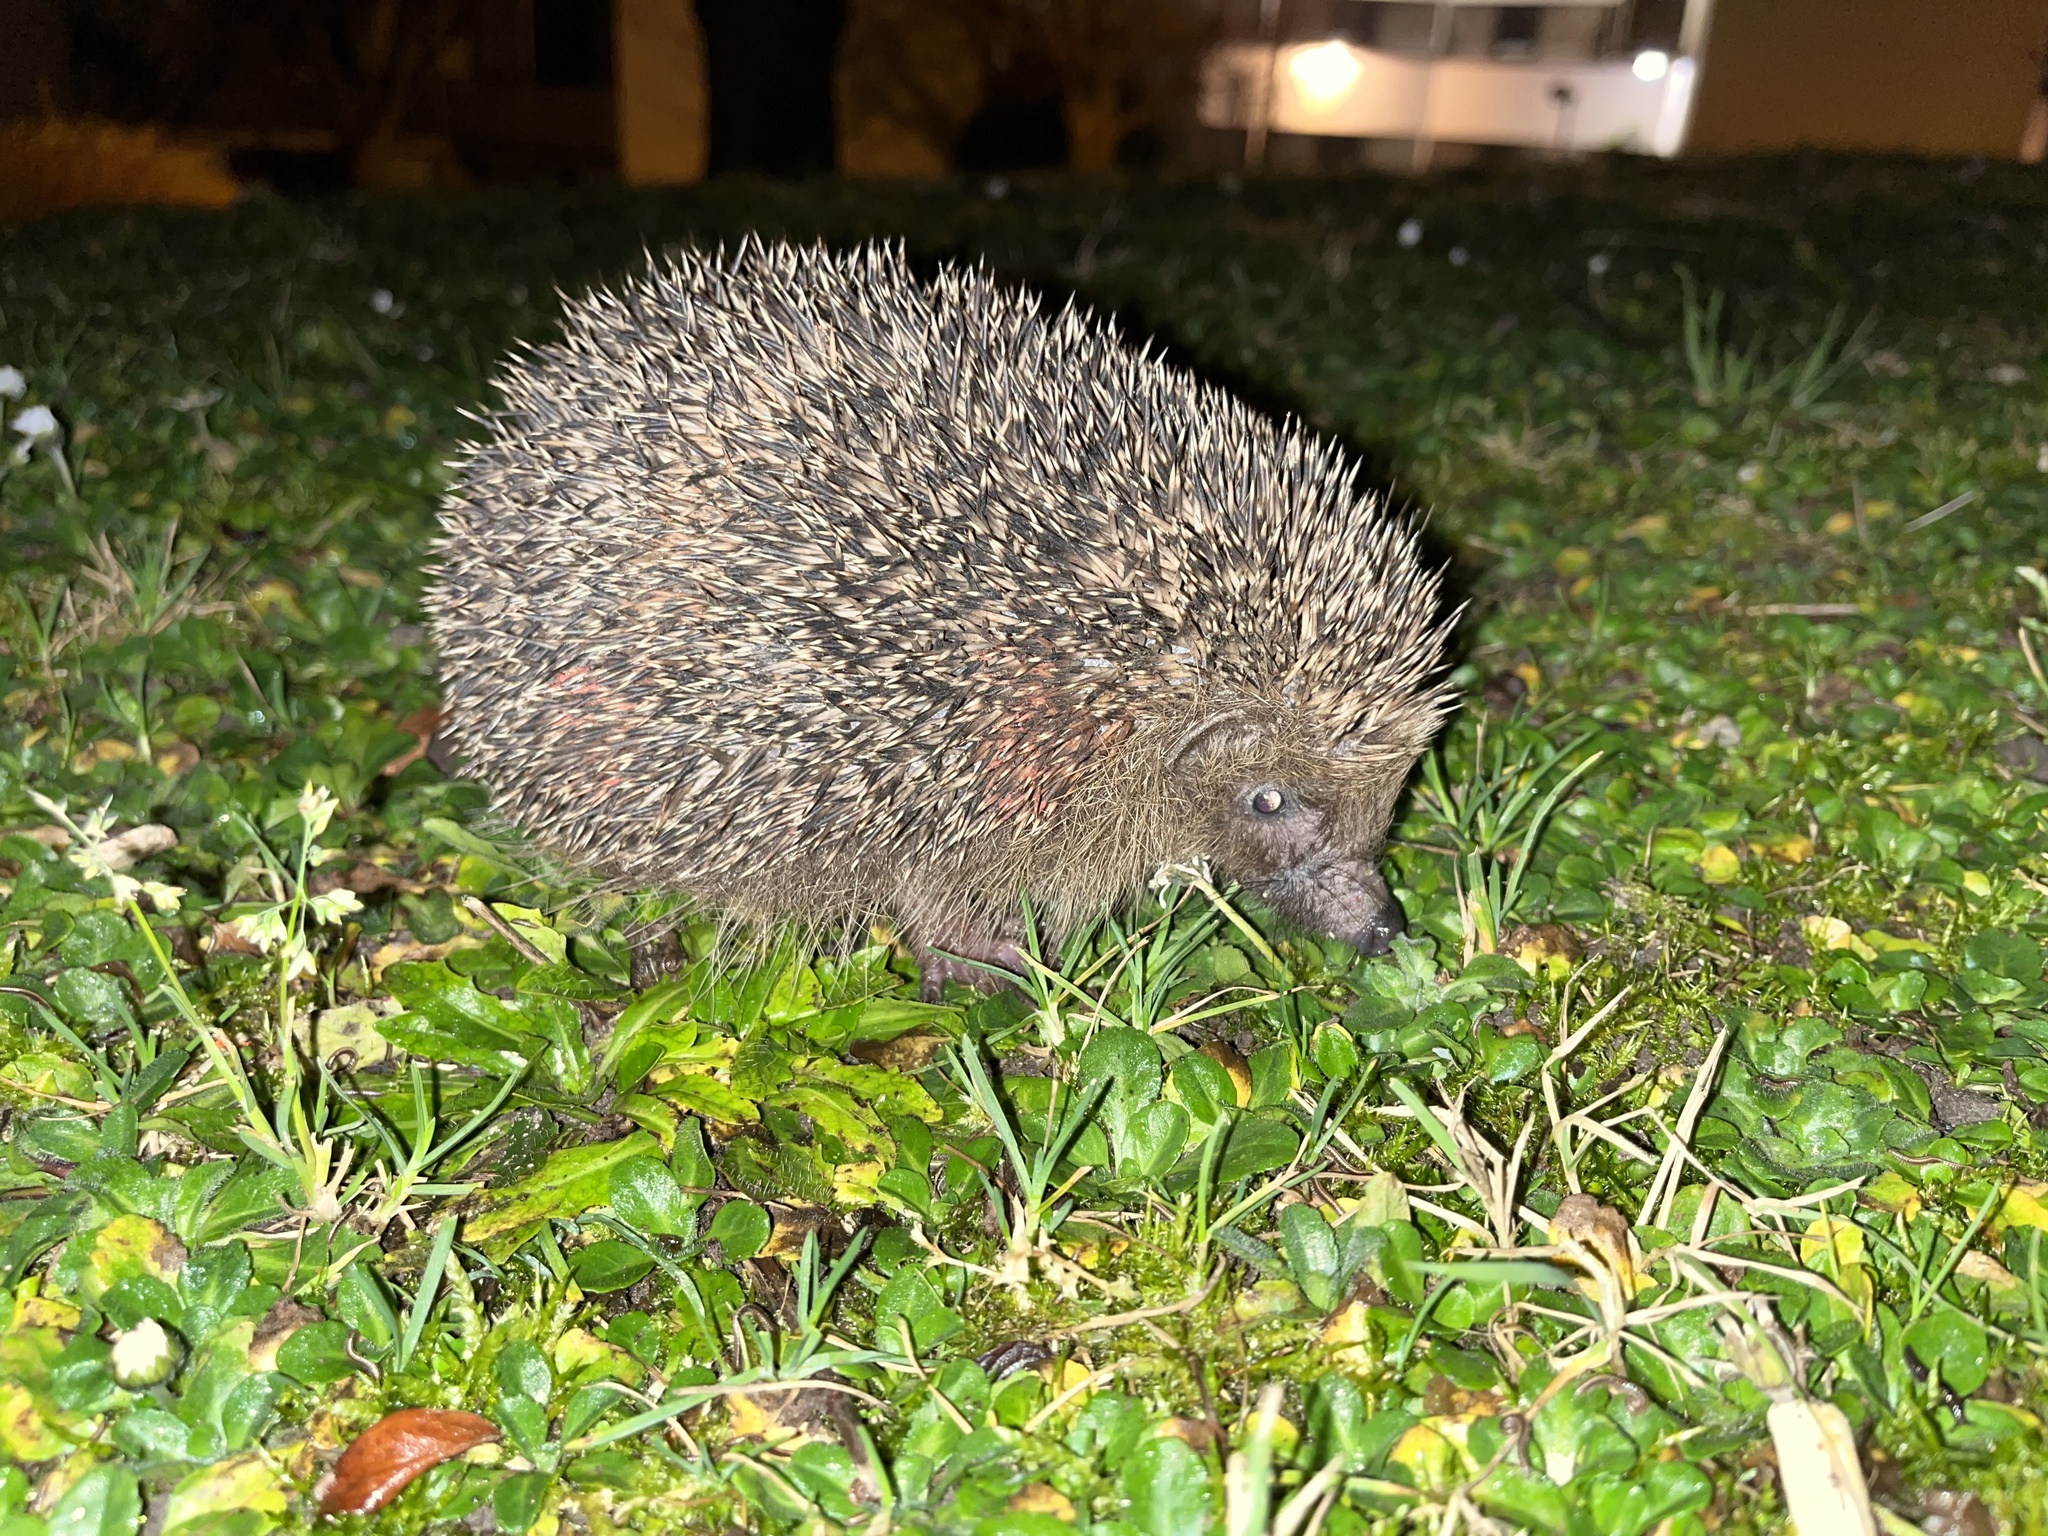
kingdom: Animalia
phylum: Chordata
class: Mammalia
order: Erinaceomorpha
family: Erinaceidae
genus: Erinaceus
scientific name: Erinaceus europaeus
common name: West european hedgehog
